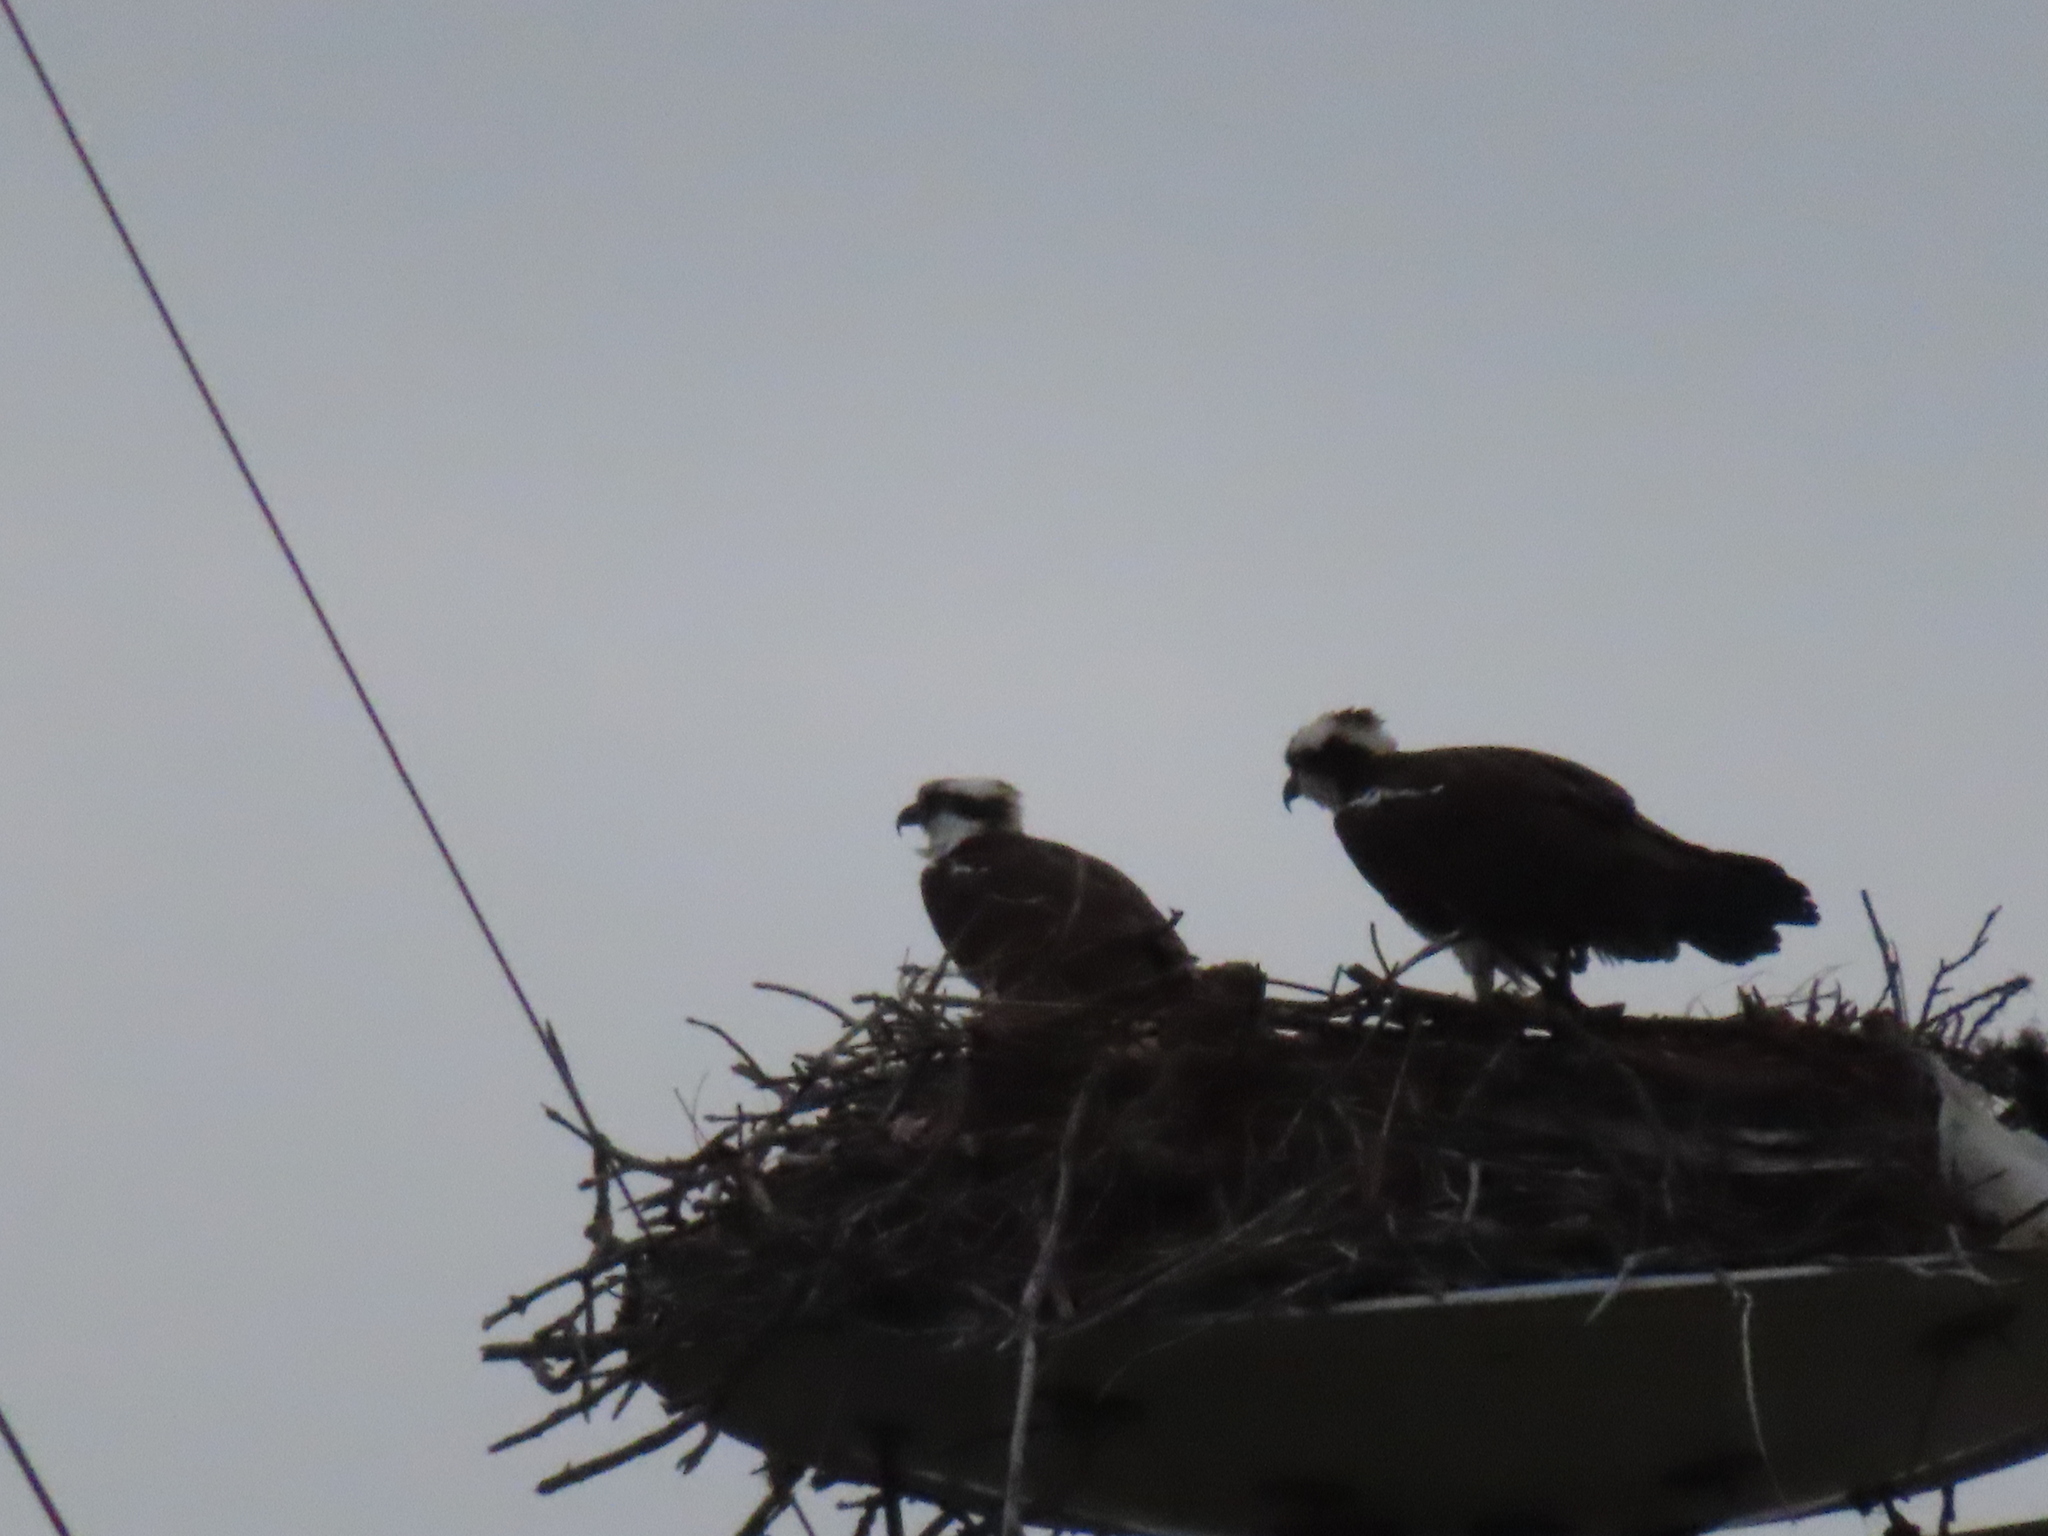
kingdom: Animalia
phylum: Chordata
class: Aves
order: Accipitriformes
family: Pandionidae
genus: Pandion
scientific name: Pandion haliaetus
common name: Osprey
